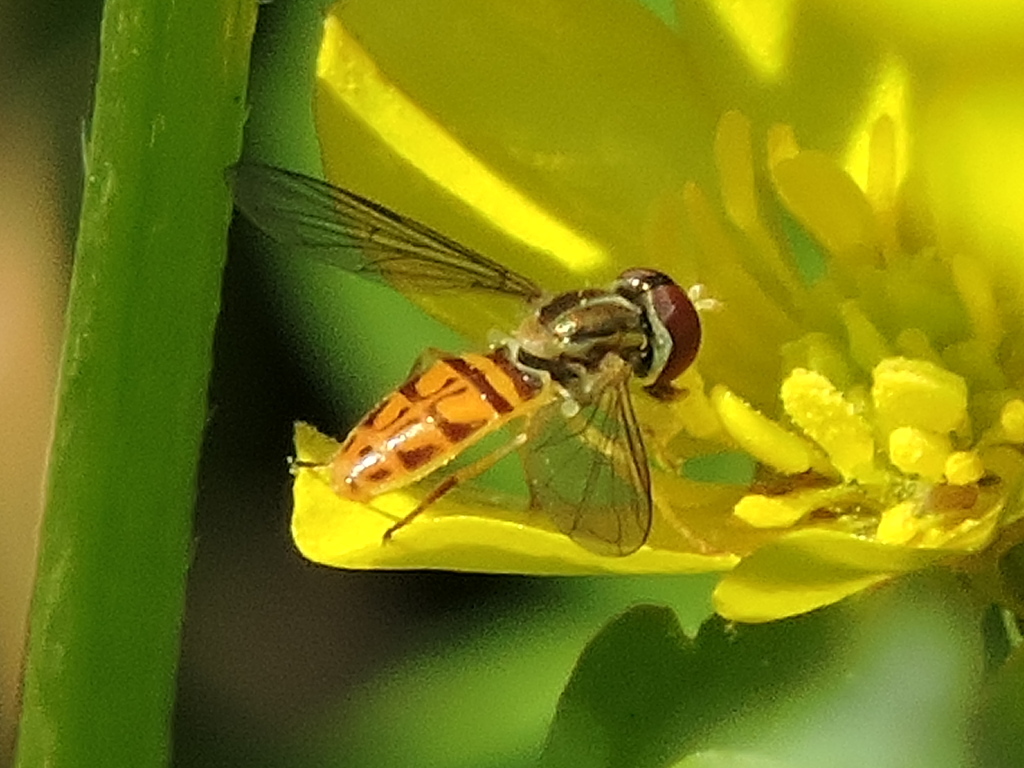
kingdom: Animalia
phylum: Arthropoda
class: Insecta
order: Diptera
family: Syrphidae
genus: Toxomerus
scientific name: Toxomerus marginatus
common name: Syrphid fly
